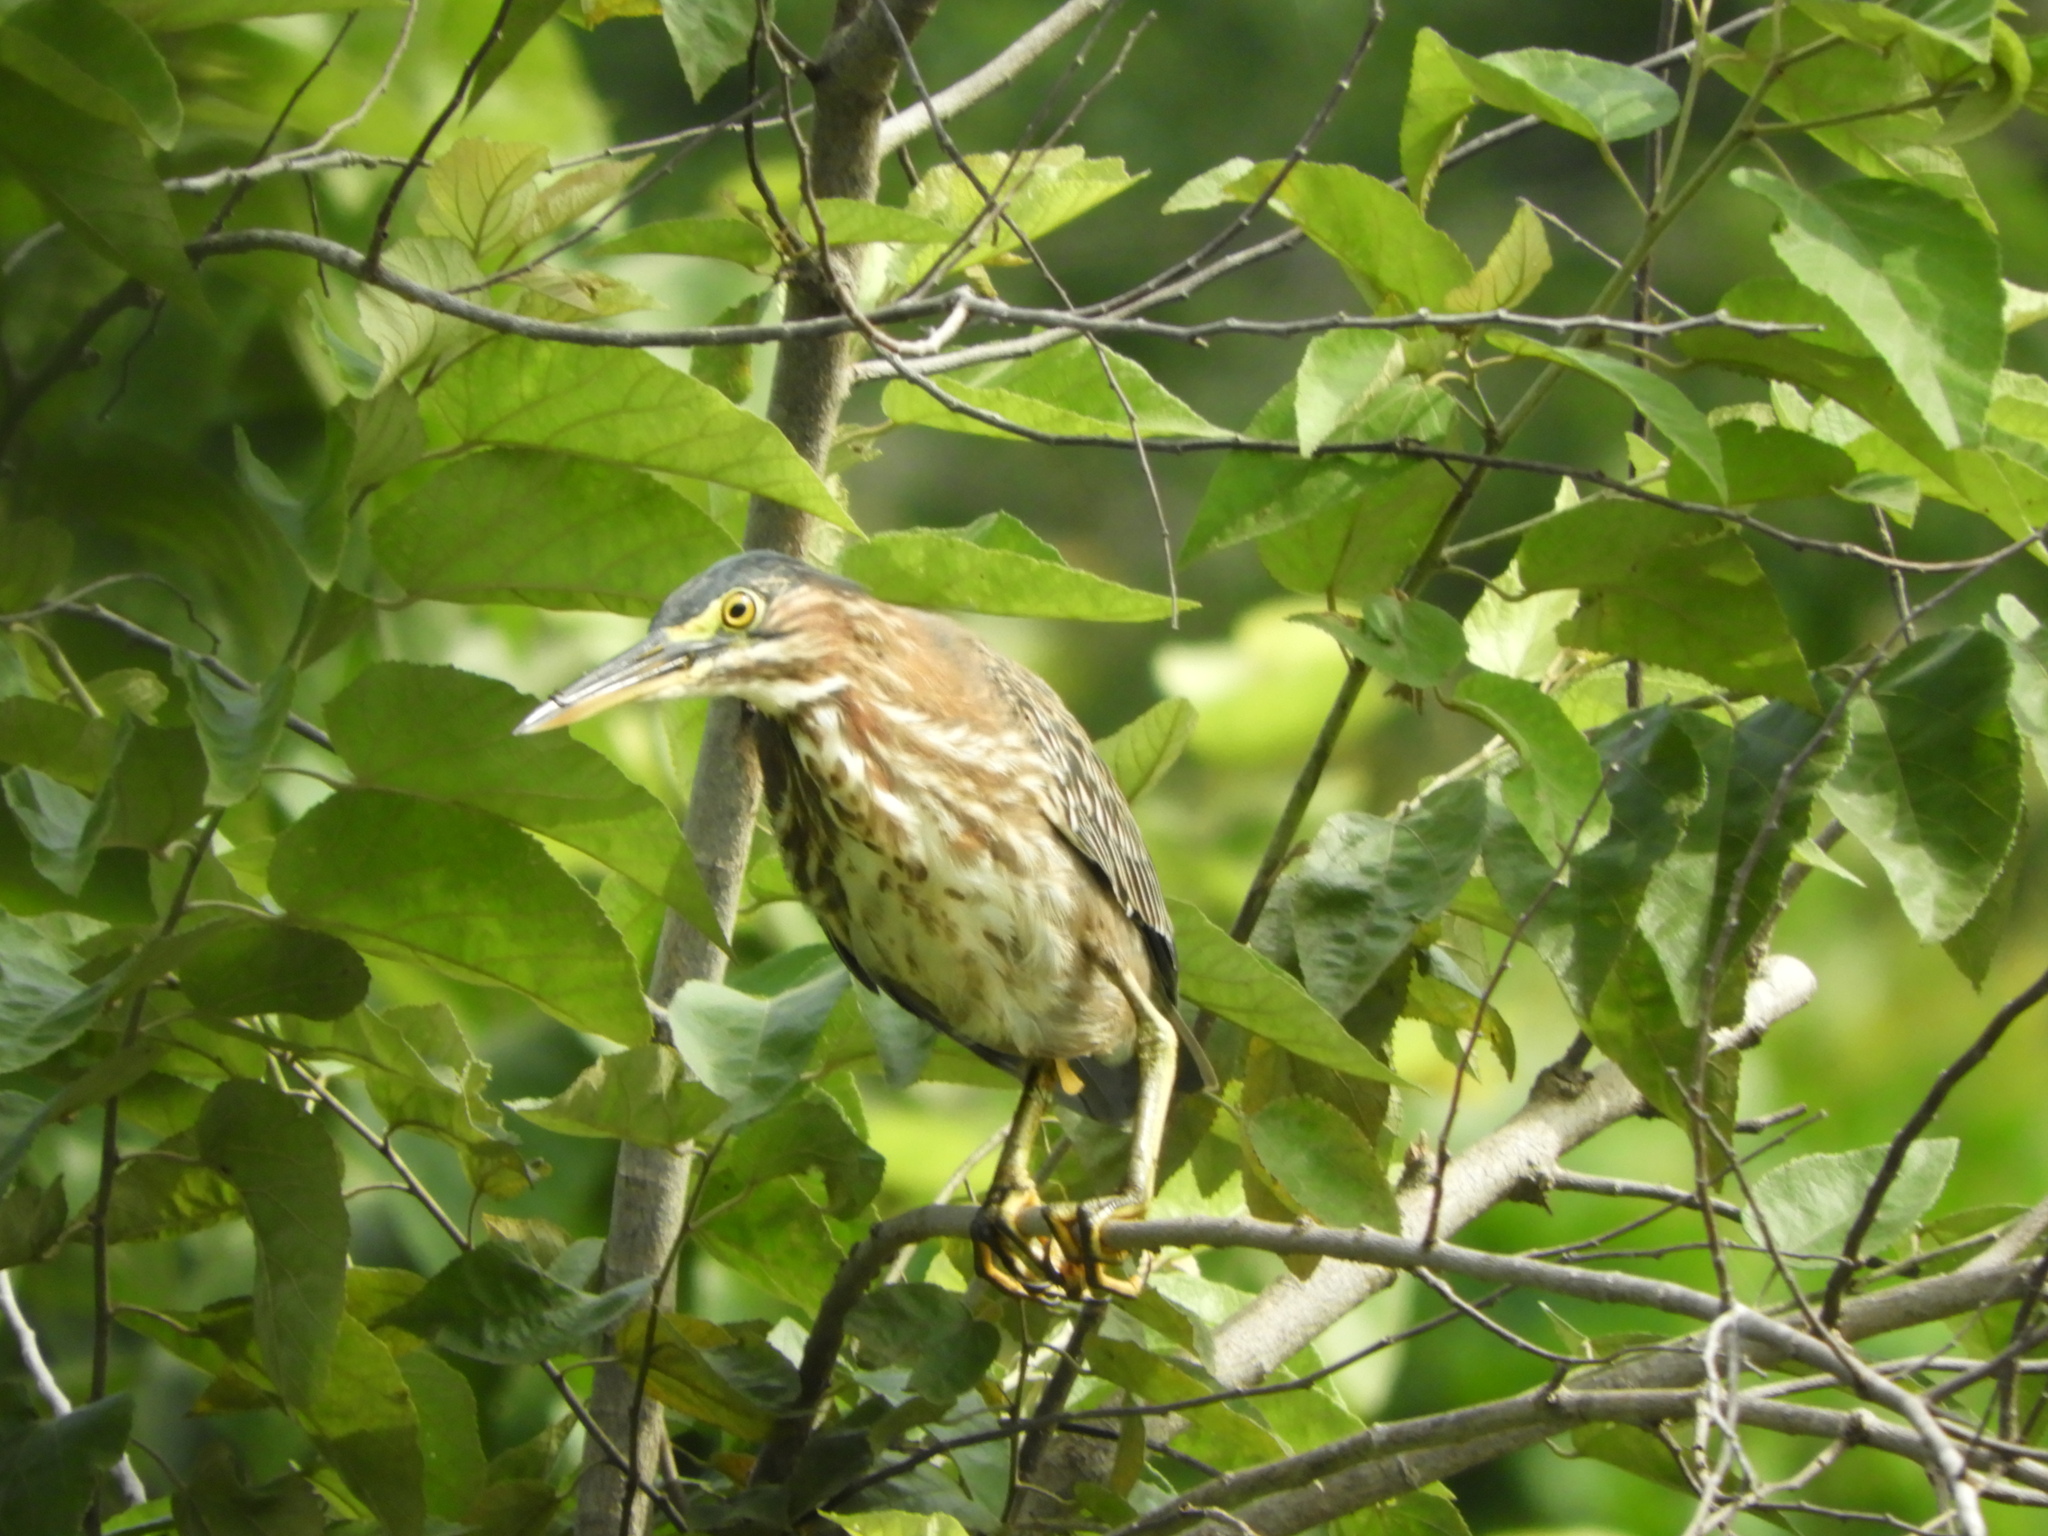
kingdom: Animalia
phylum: Chordata
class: Aves
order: Pelecaniformes
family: Ardeidae
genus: Butorides
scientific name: Butorides virescens
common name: Green heron
